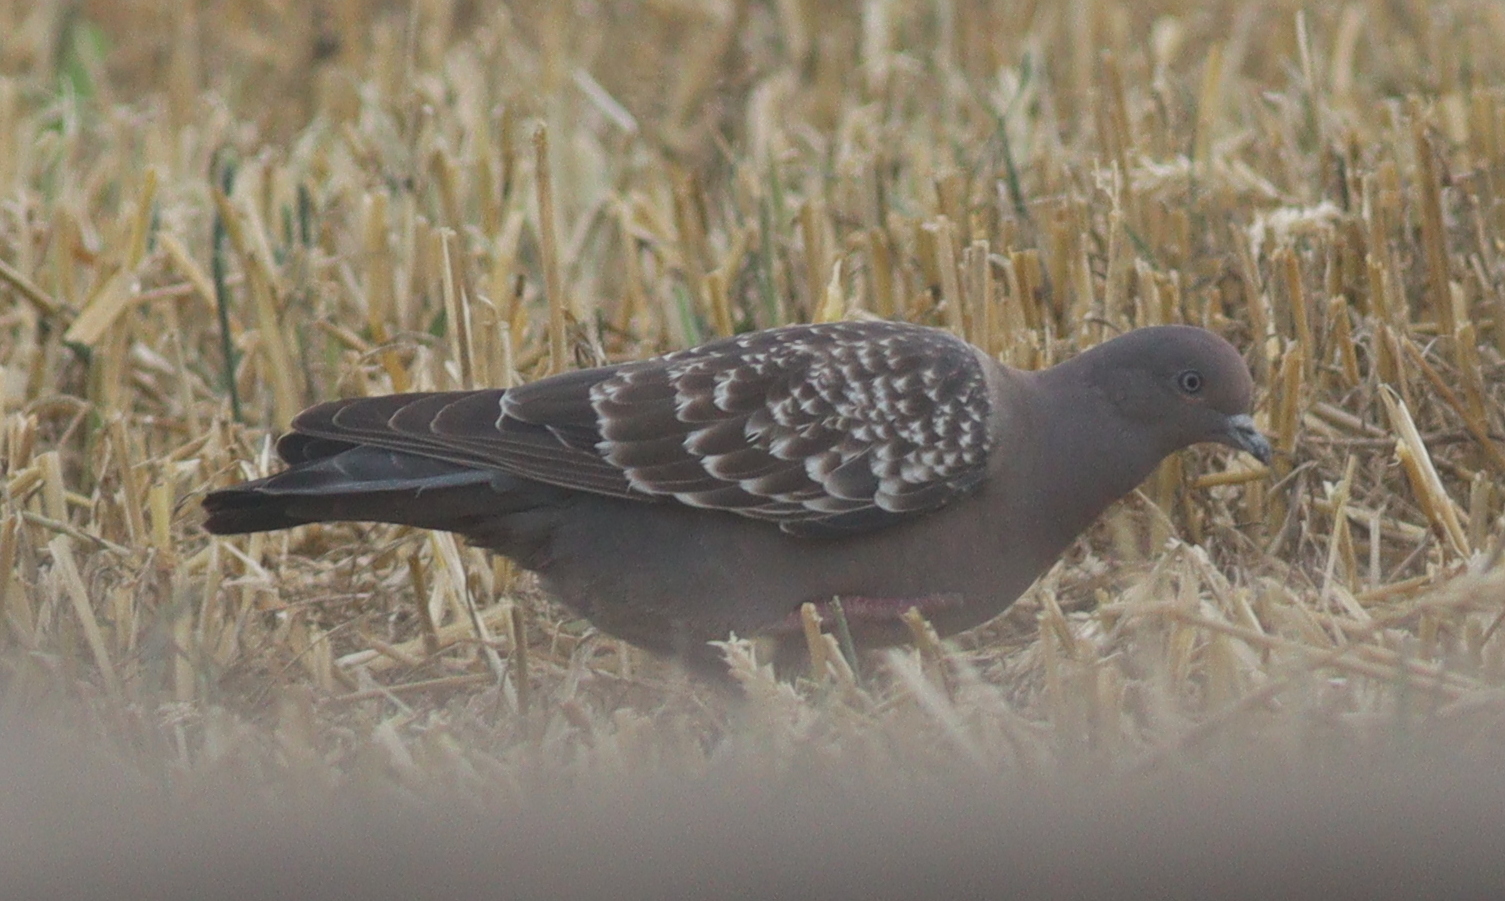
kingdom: Animalia
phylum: Chordata
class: Aves
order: Columbiformes
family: Columbidae
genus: Patagioenas
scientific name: Patagioenas maculosa
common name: Spot-winged pigeon
